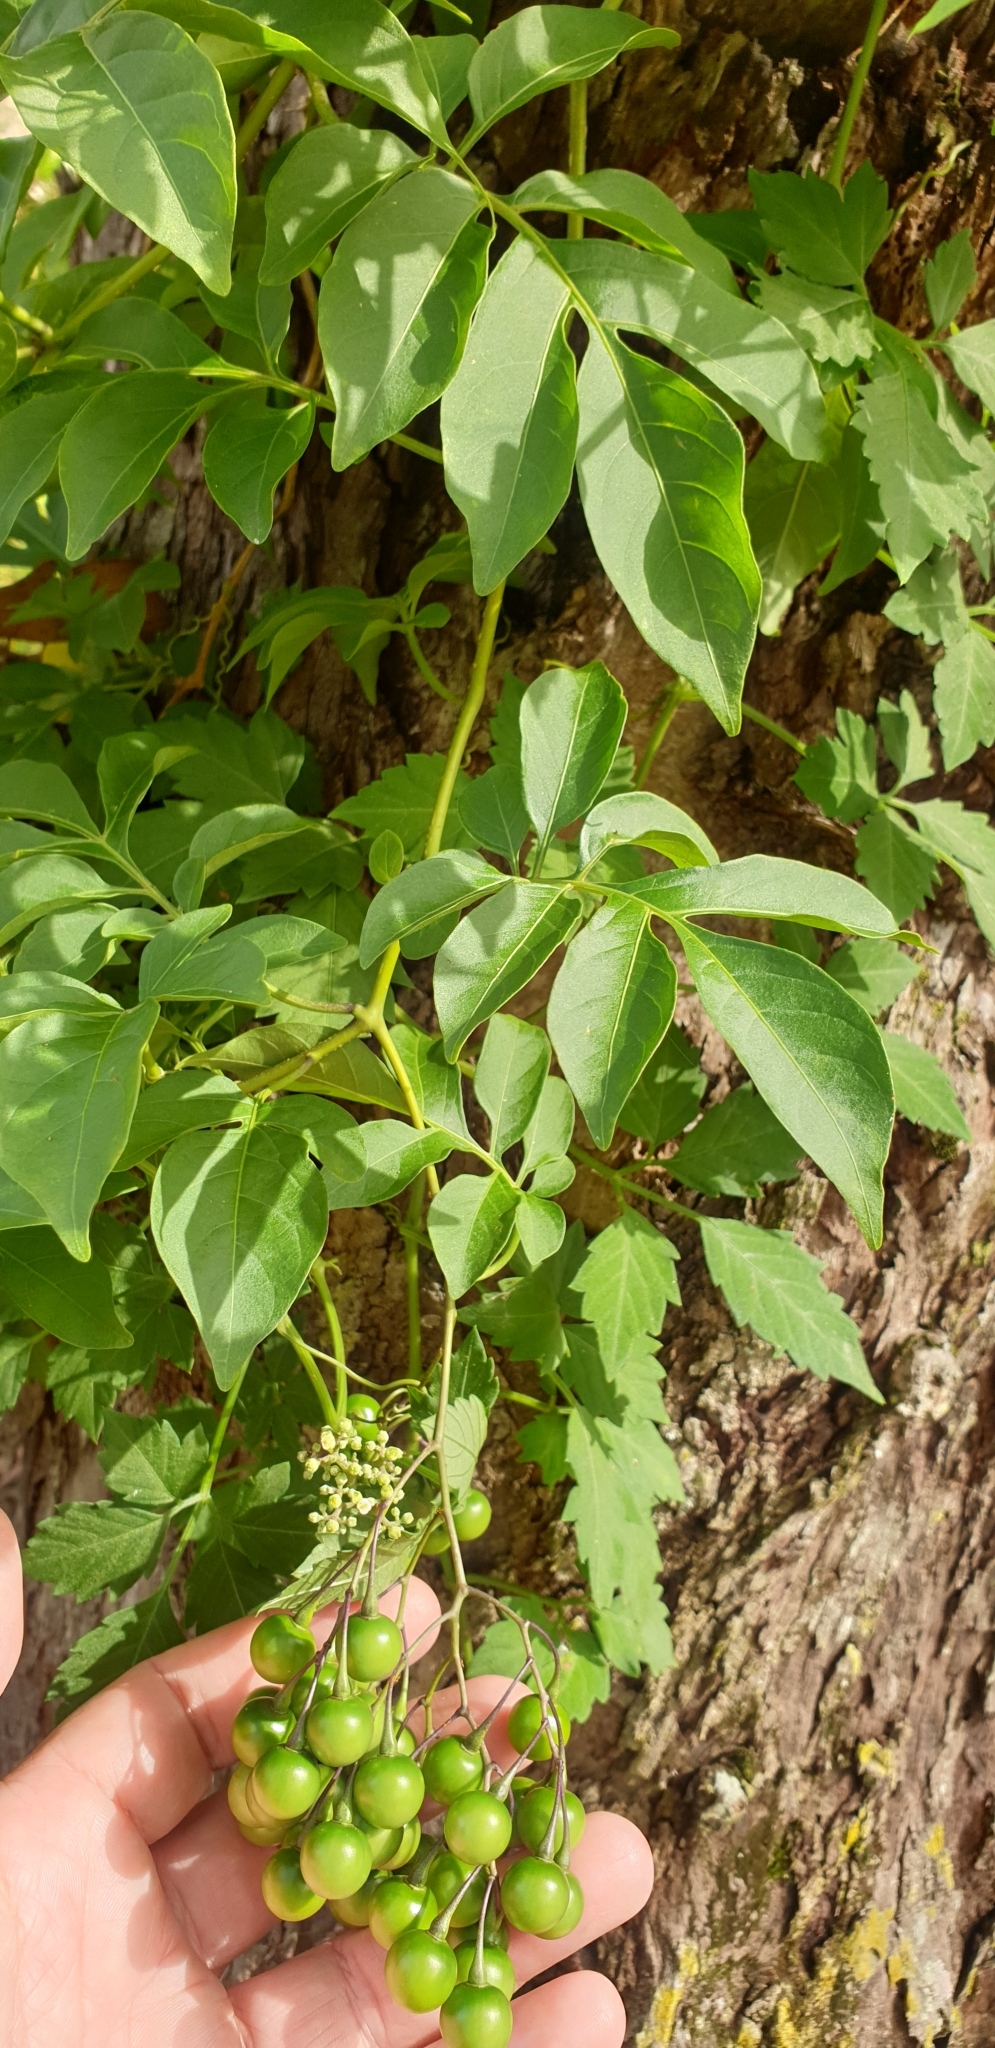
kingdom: Plantae
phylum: Tracheophyta
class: Magnoliopsida
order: Solanales
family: Solanaceae
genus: Solanum
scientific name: Solanum seaforthianum
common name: Brazilian nightshade
